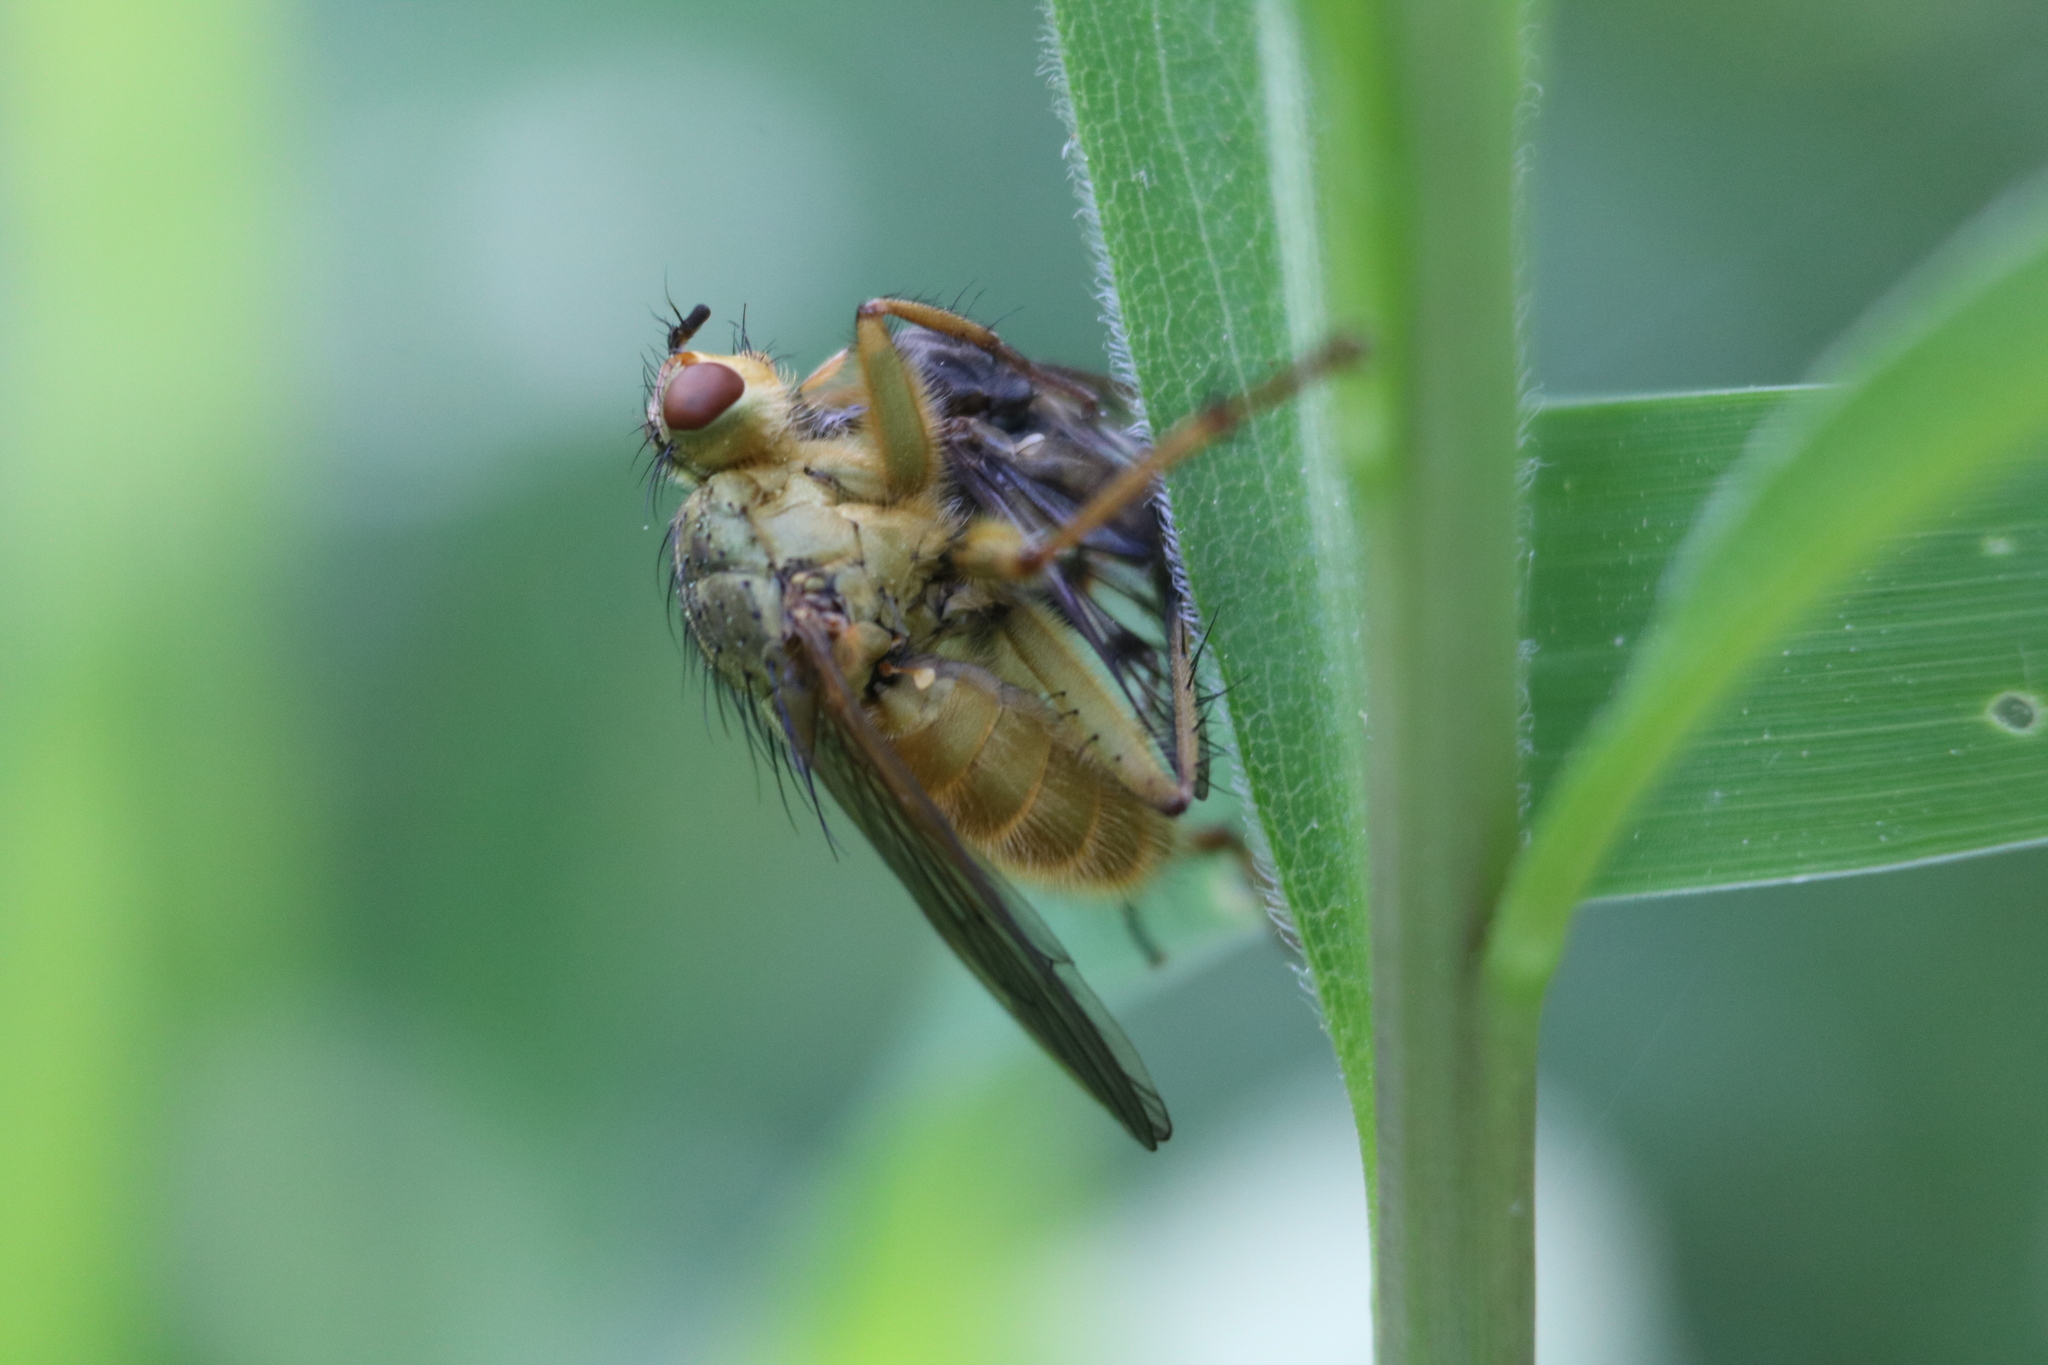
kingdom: Animalia
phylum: Arthropoda
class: Insecta
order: Diptera
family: Scathophagidae
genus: Scathophaga
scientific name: Scathophaga stercoraria
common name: Yellow dung fly
